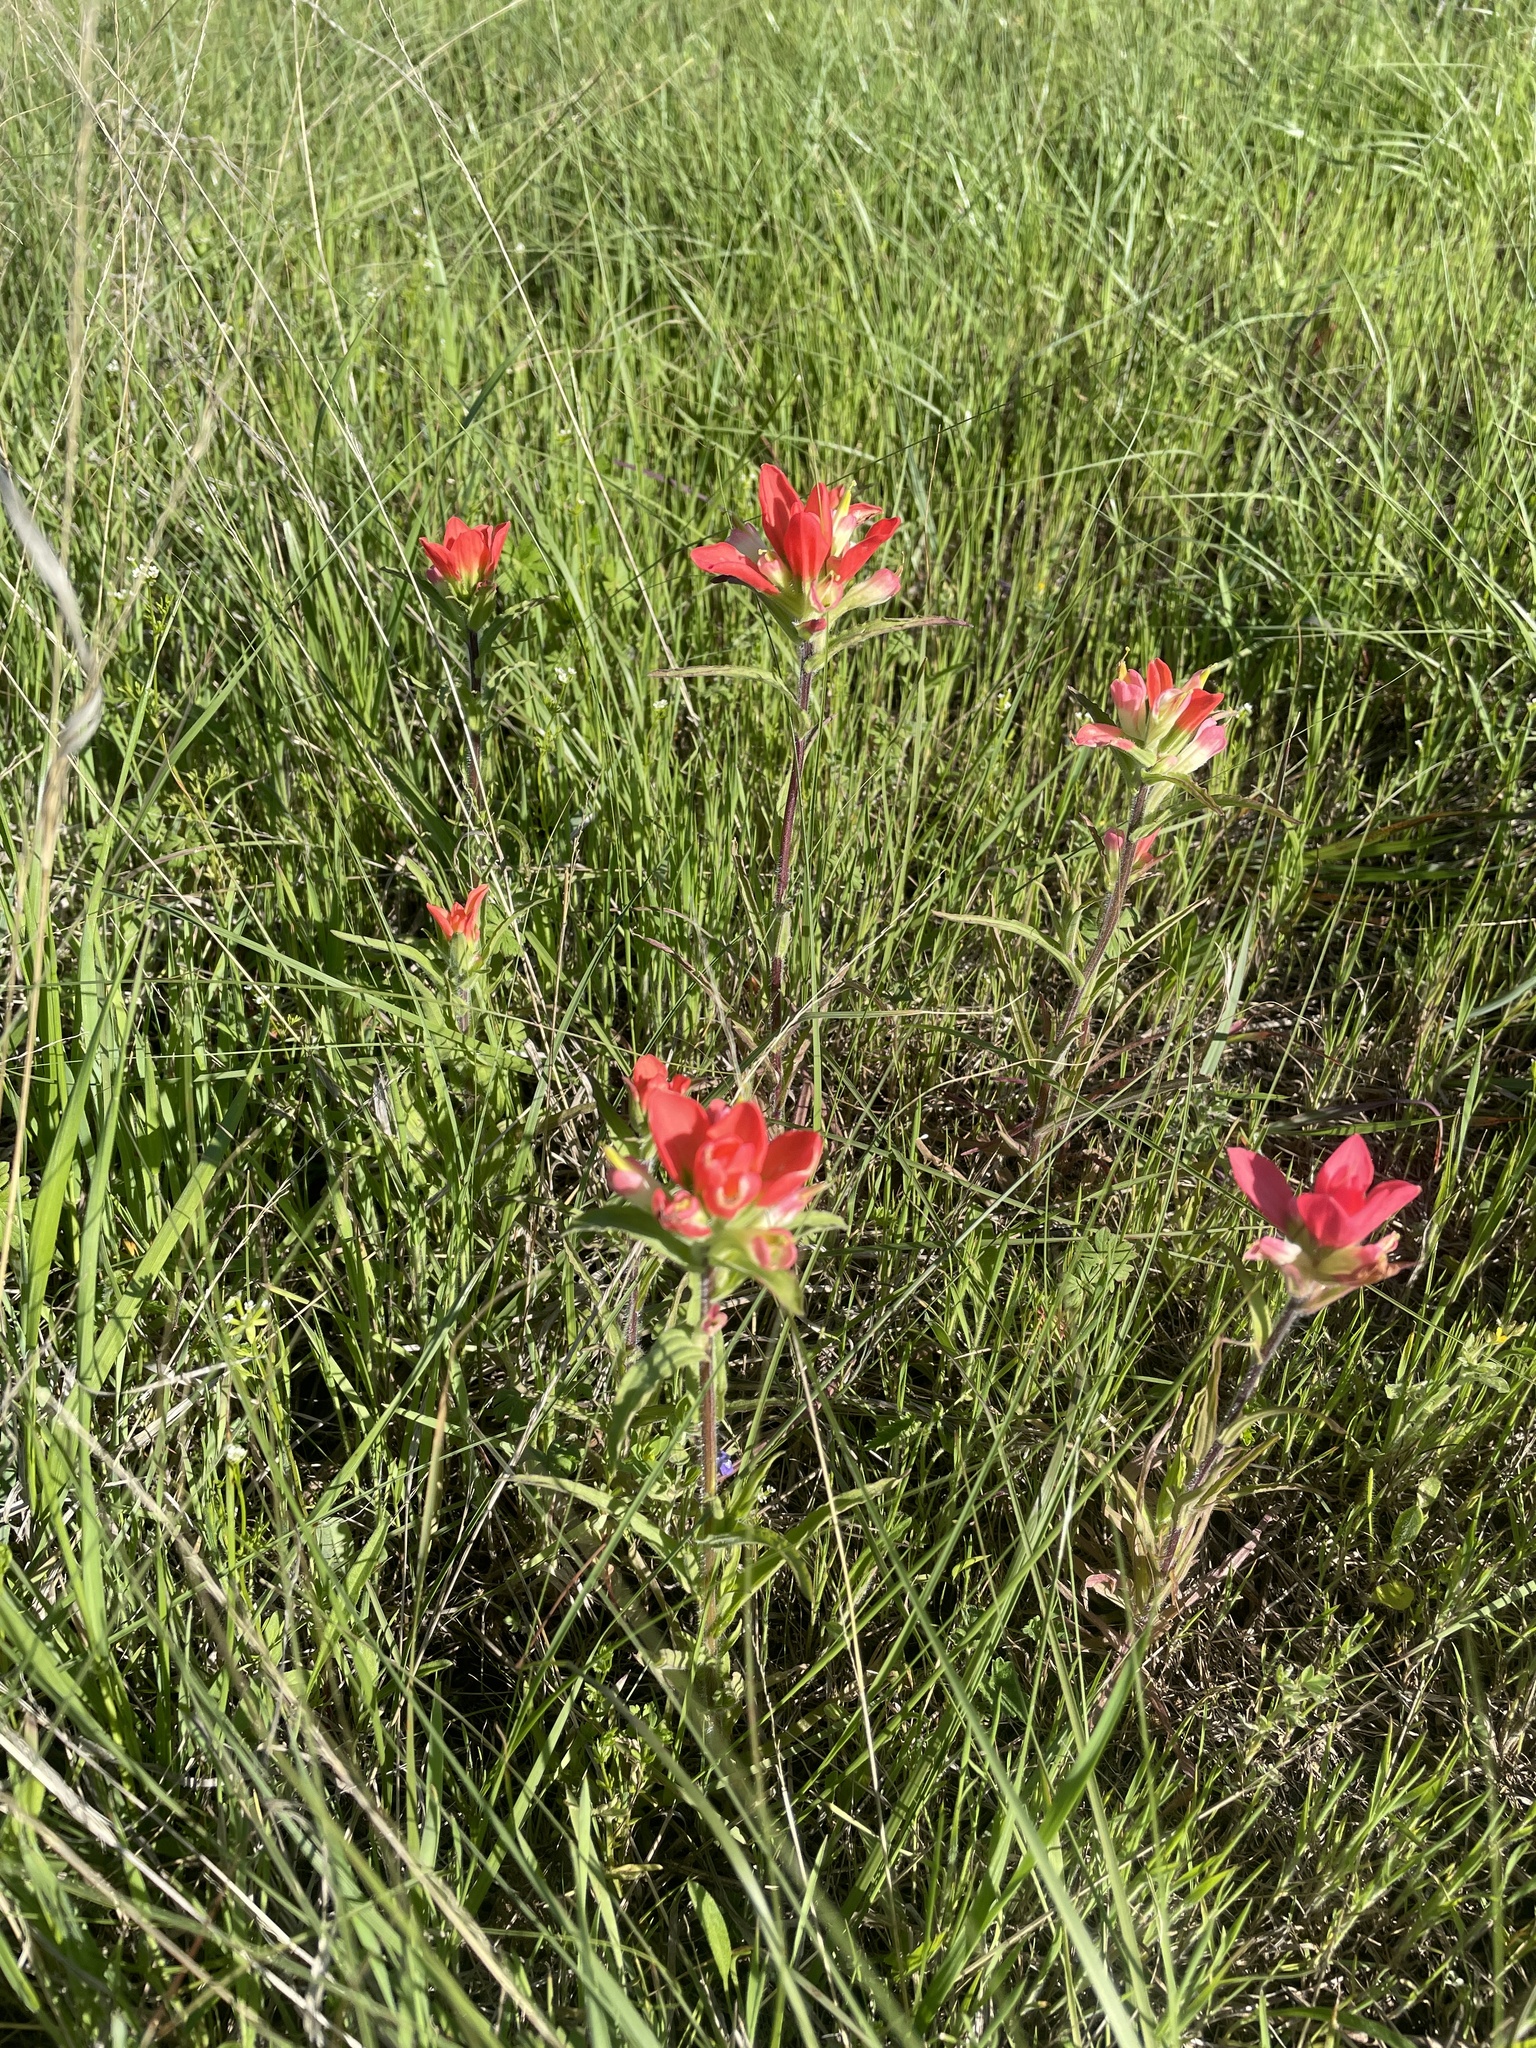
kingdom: Plantae
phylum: Tracheophyta
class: Magnoliopsida
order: Lamiales
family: Orobanchaceae
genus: Castilleja
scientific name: Castilleja indivisa
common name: Texas paintbrush
